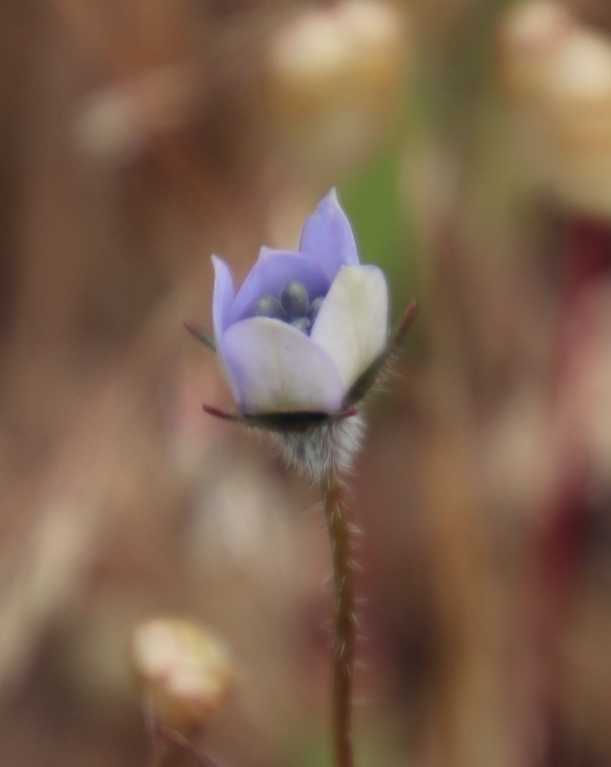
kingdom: Plantae
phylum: Tracheophyta
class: Magnoliopsida
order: Asterales
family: Campanulaceae
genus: Wahlenbergia
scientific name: Wahlenbergia capensis
